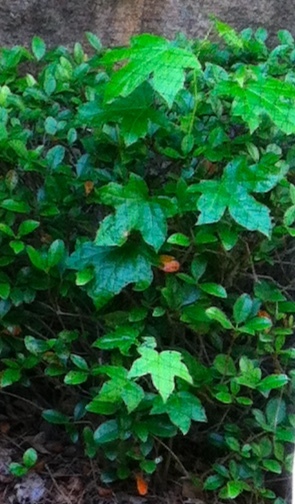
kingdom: Plantae
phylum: Tracheophyta
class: Magnoliopsida
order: Saxifragales
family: Altingiaceae
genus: Liquidambar
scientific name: Liquidambar styraciflua
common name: Sweet gum
